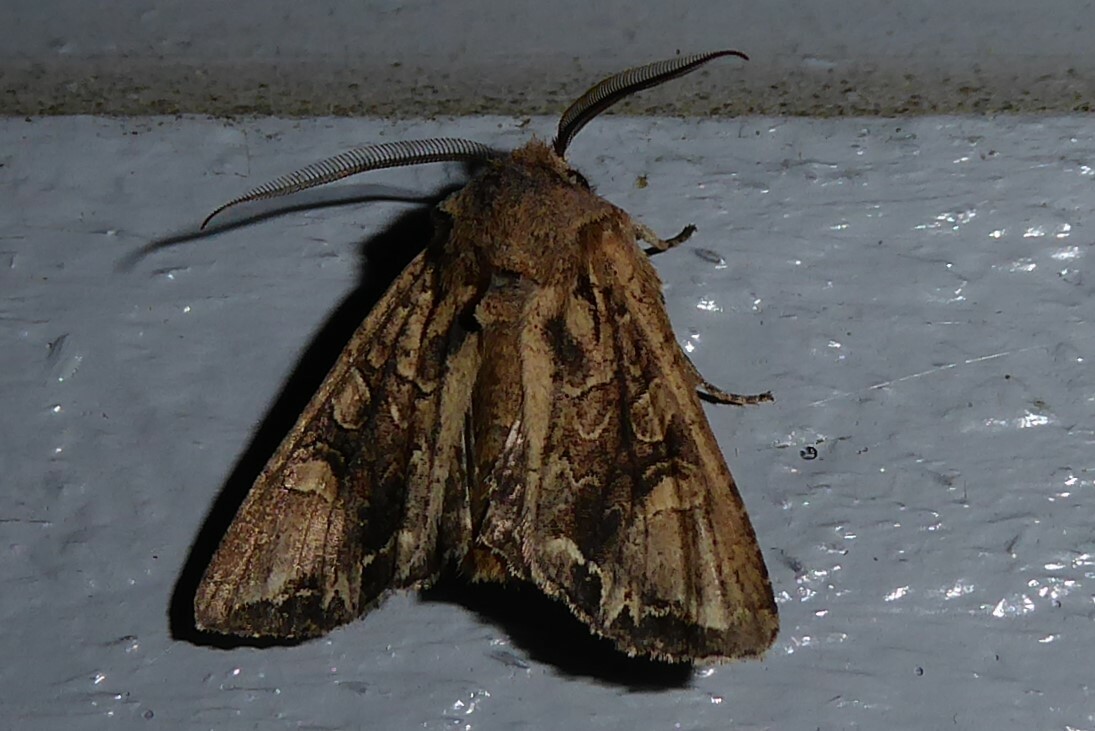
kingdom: Animalia
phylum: Arthropoda
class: Insecta
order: Lepidoptera
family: Noctuidae
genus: Ichneutica
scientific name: Ichneutica
